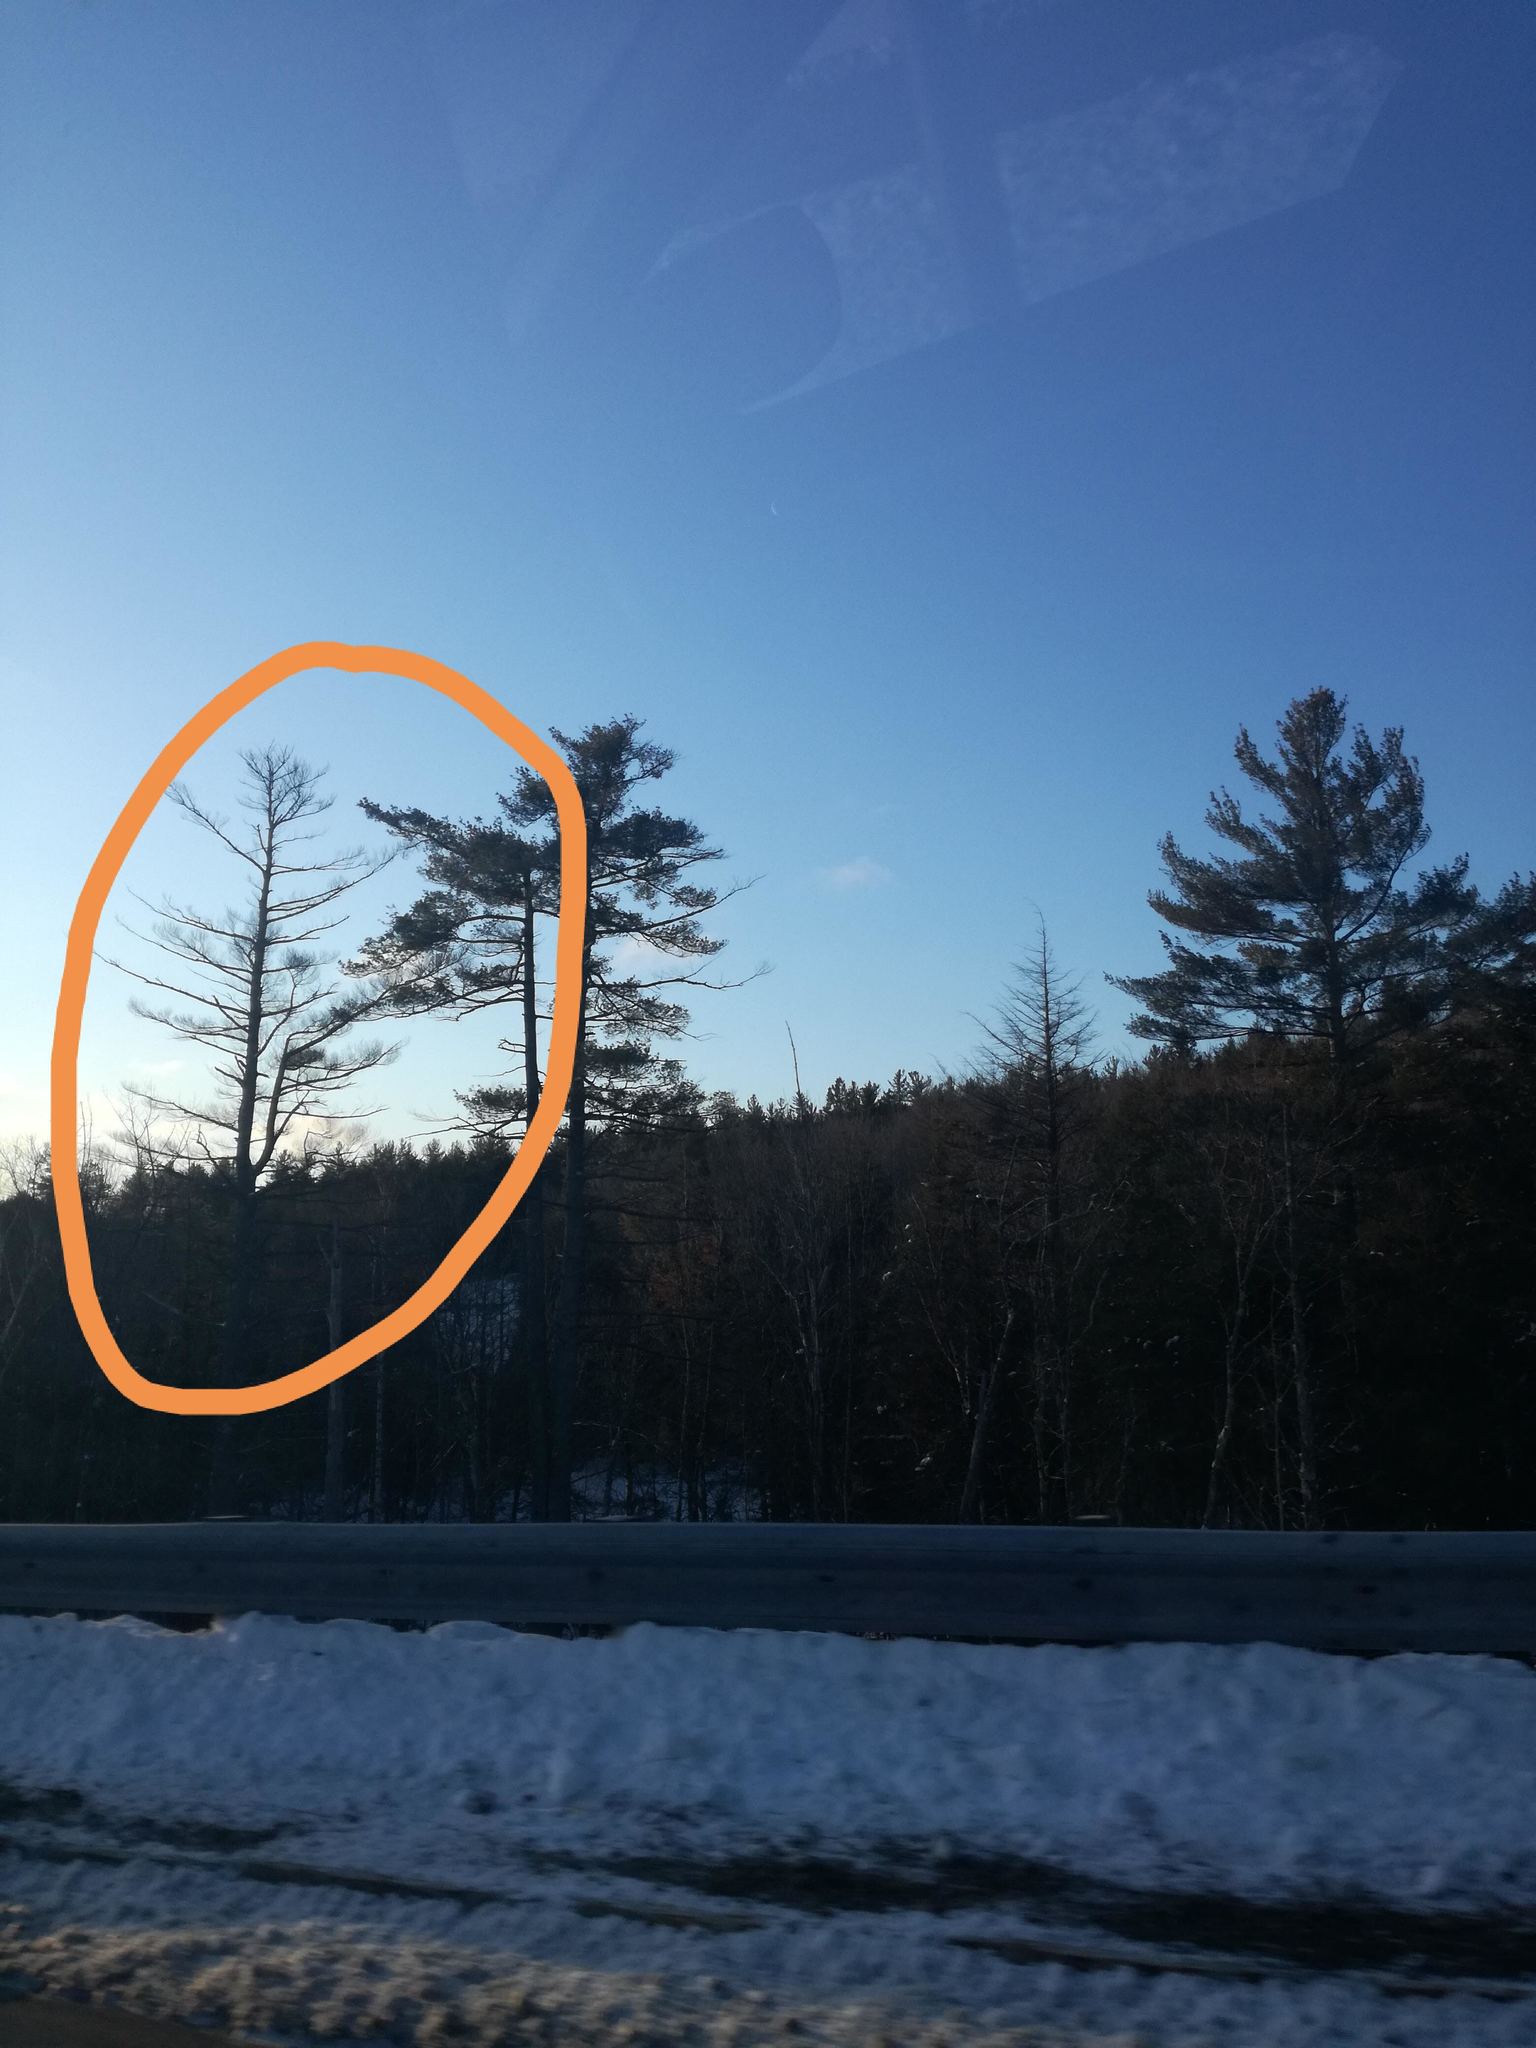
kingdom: Plantae
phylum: Tracheophyta
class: Pinopsida
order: Pinales
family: Pinaceae
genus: Pinus
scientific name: Pinus strobus
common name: Weymouth pine
